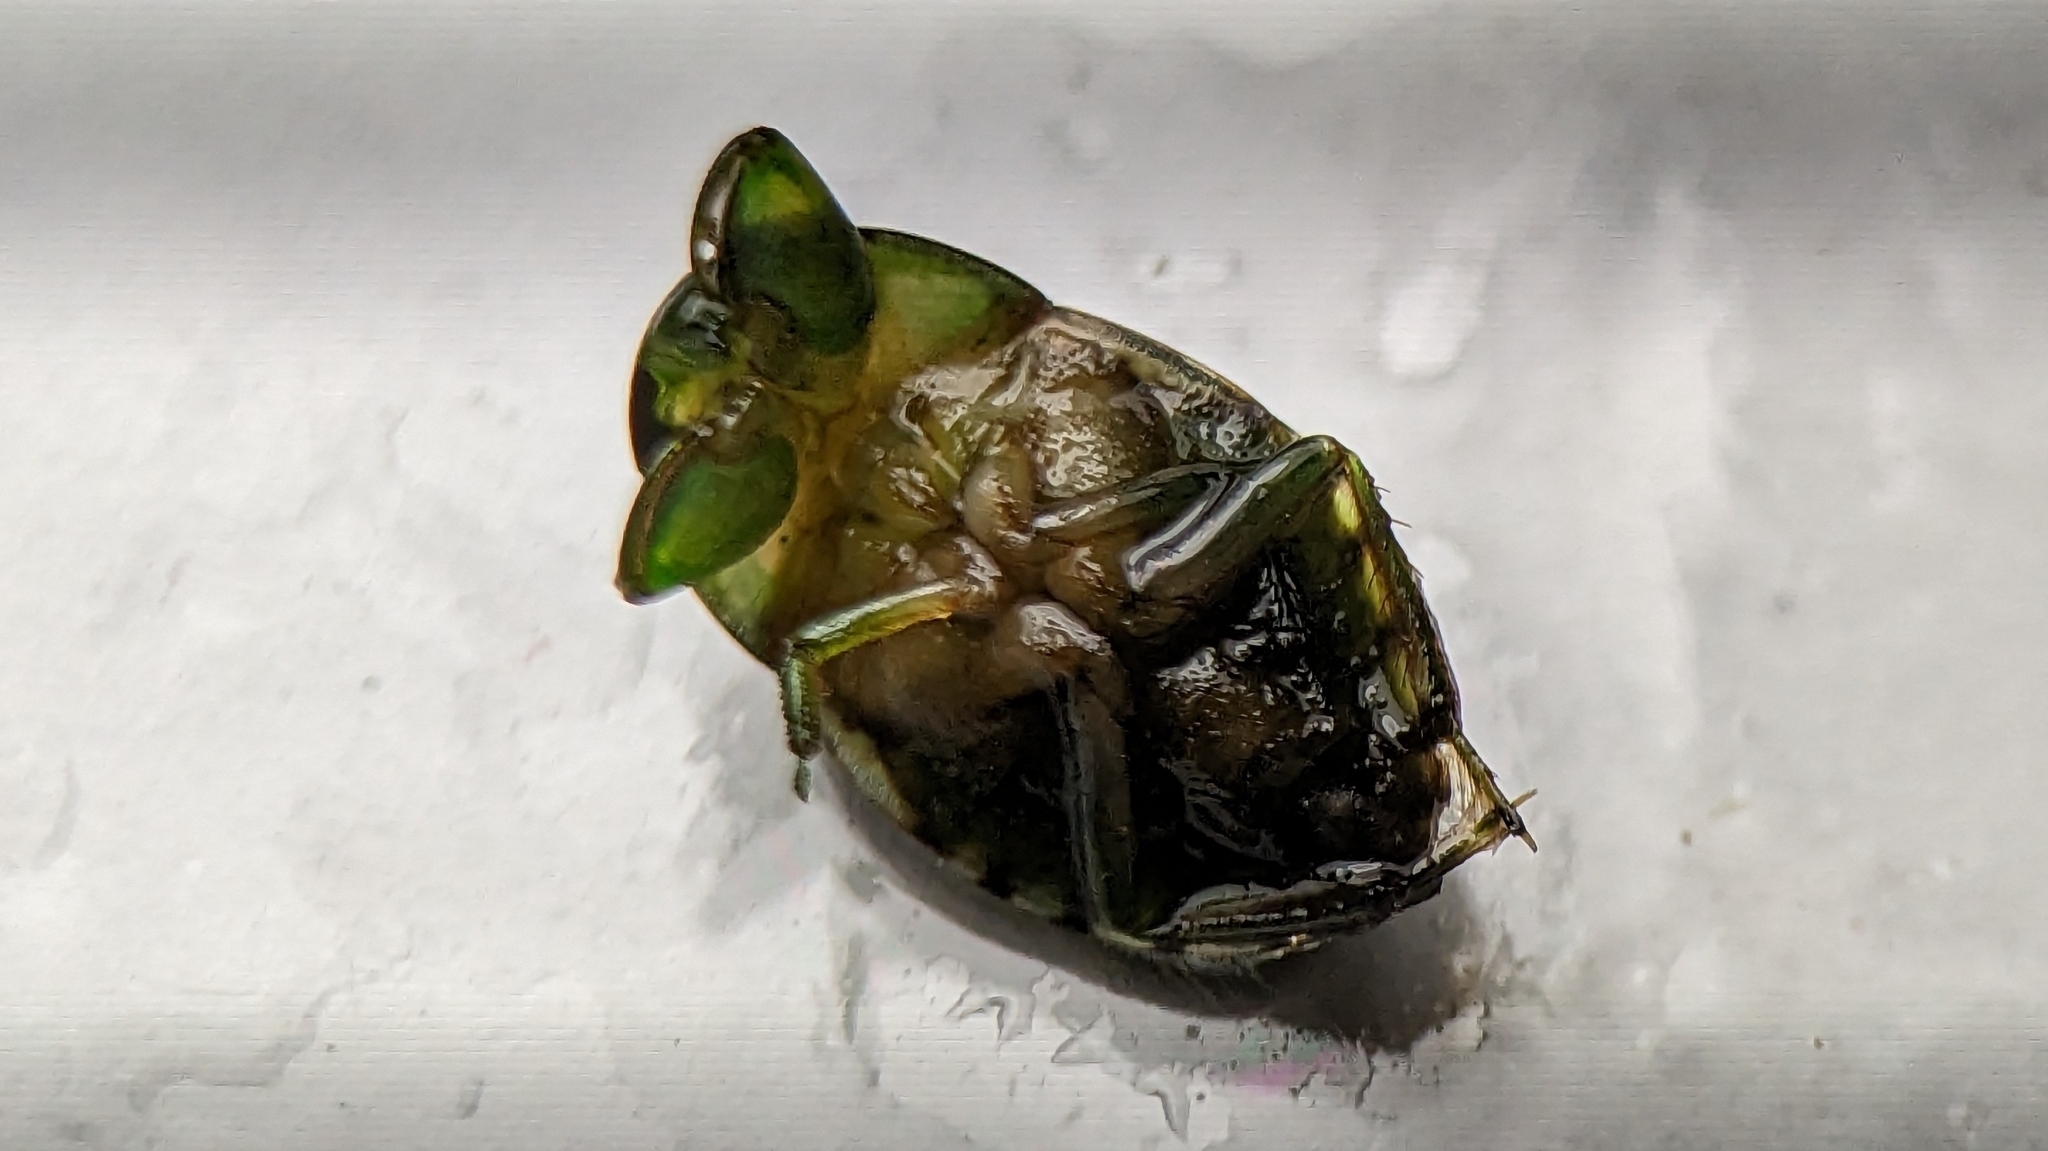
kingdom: Animalia
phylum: Arthropoda
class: Insecta
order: Hemiptera
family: Naucoridae
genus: Pelocoris
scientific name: Pelocoris
